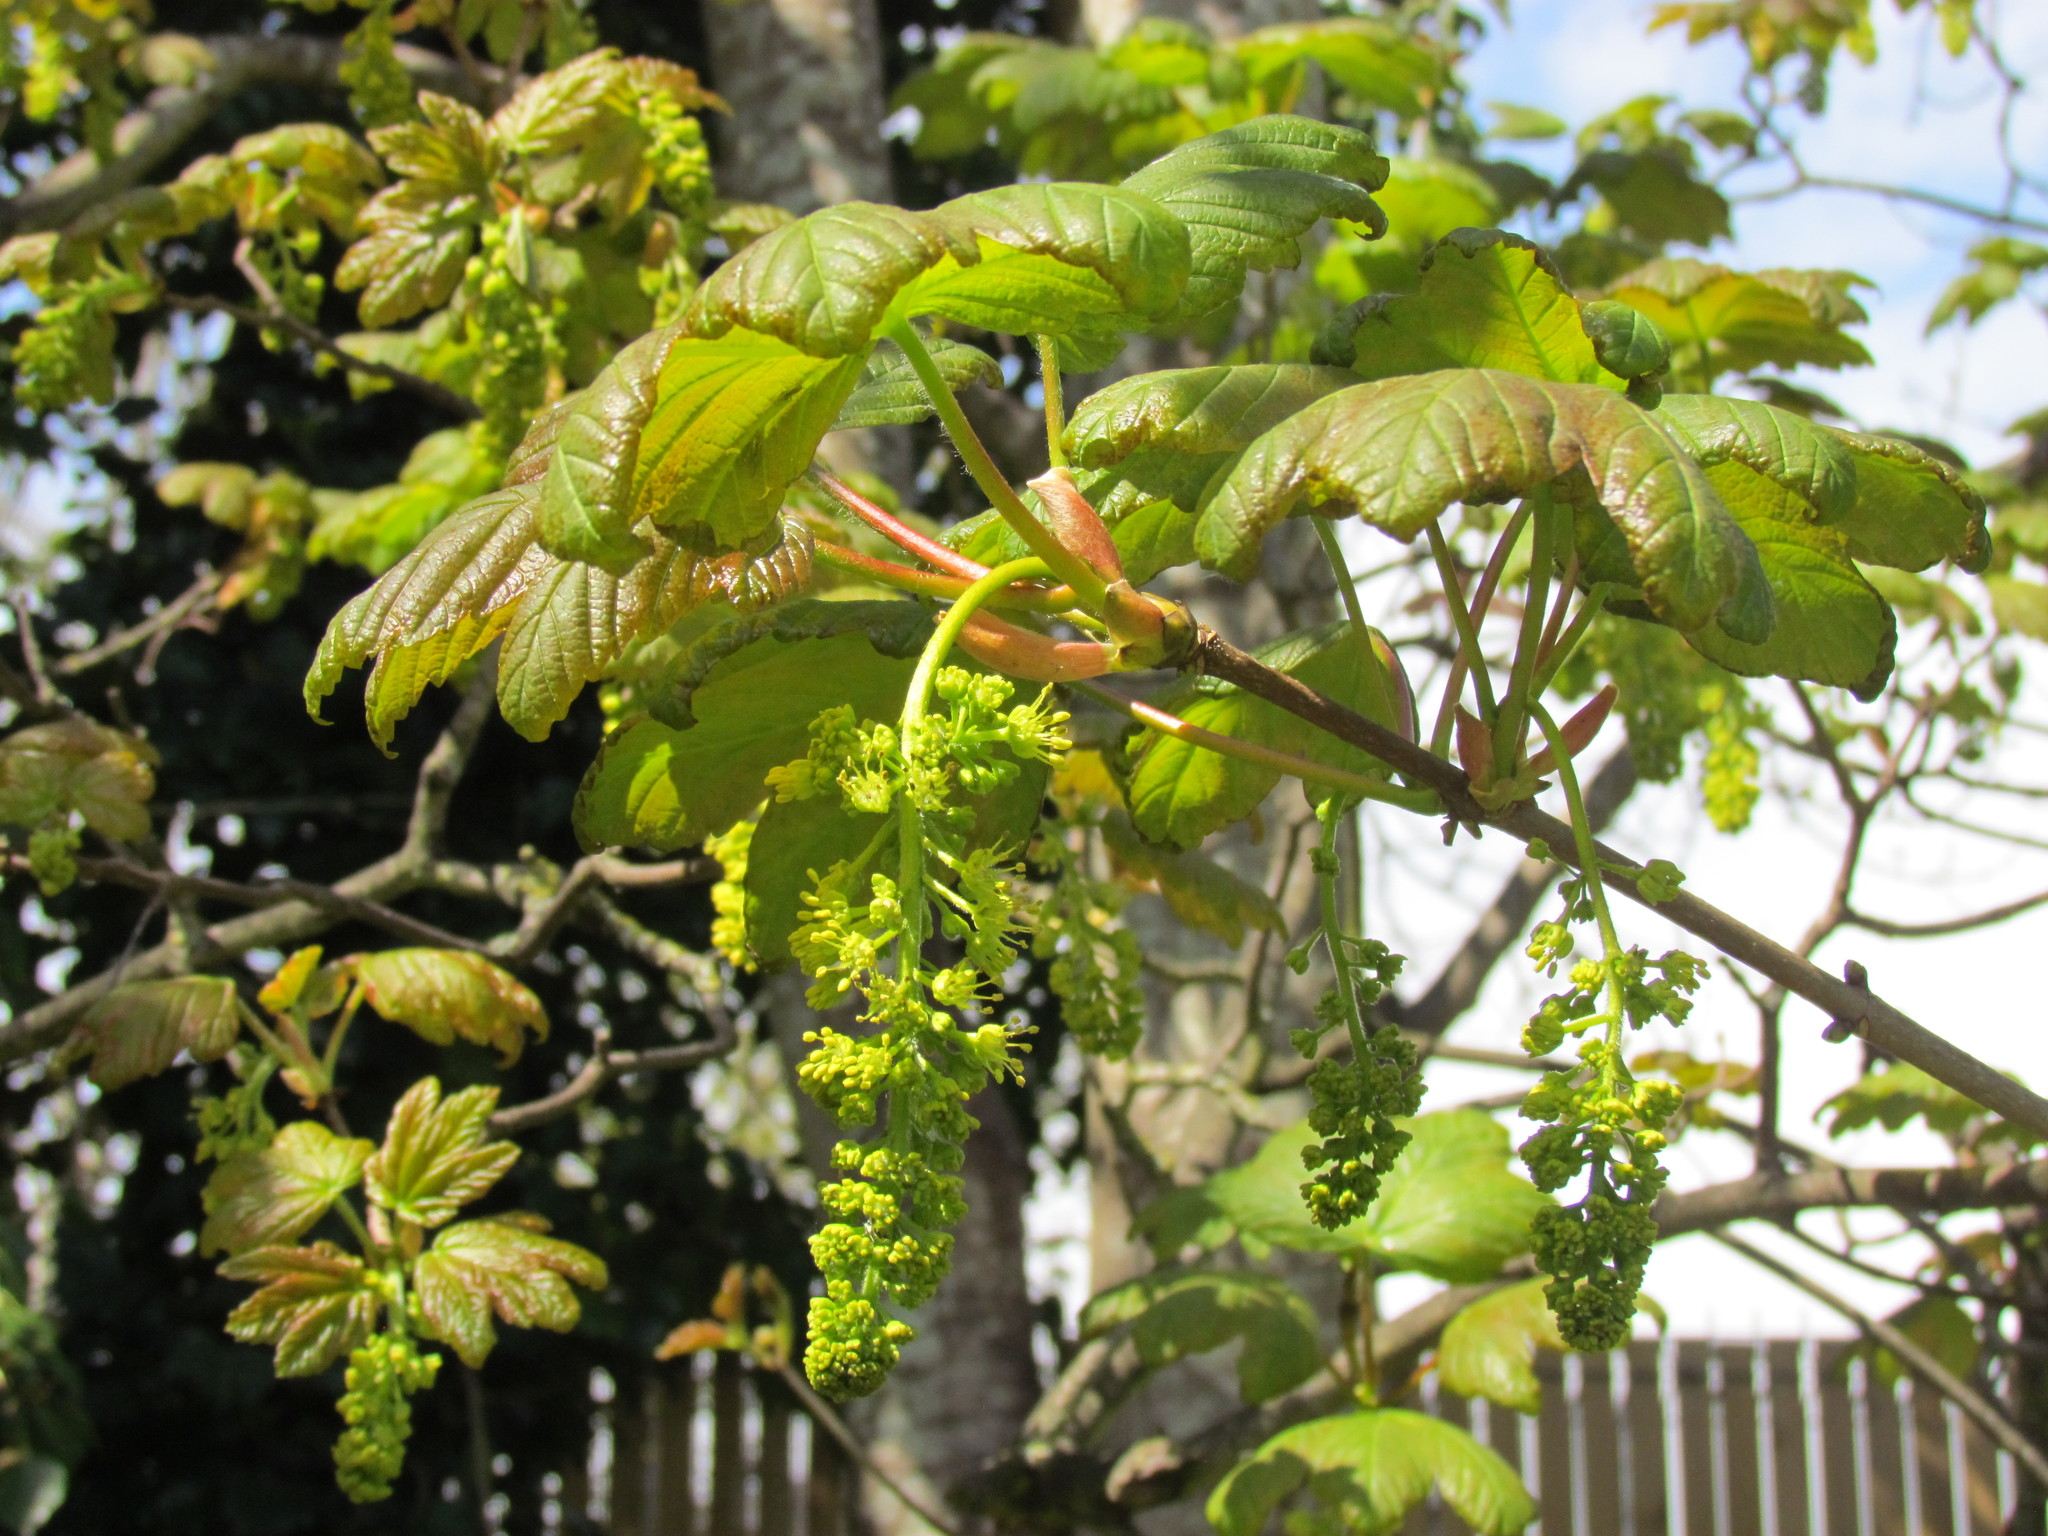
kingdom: Plantae
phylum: Tracheophyta
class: Magnoliopsida
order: Sapindales
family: Sapindaceae
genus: Acer
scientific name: Acer pseudoplatanus
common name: Sycamore
